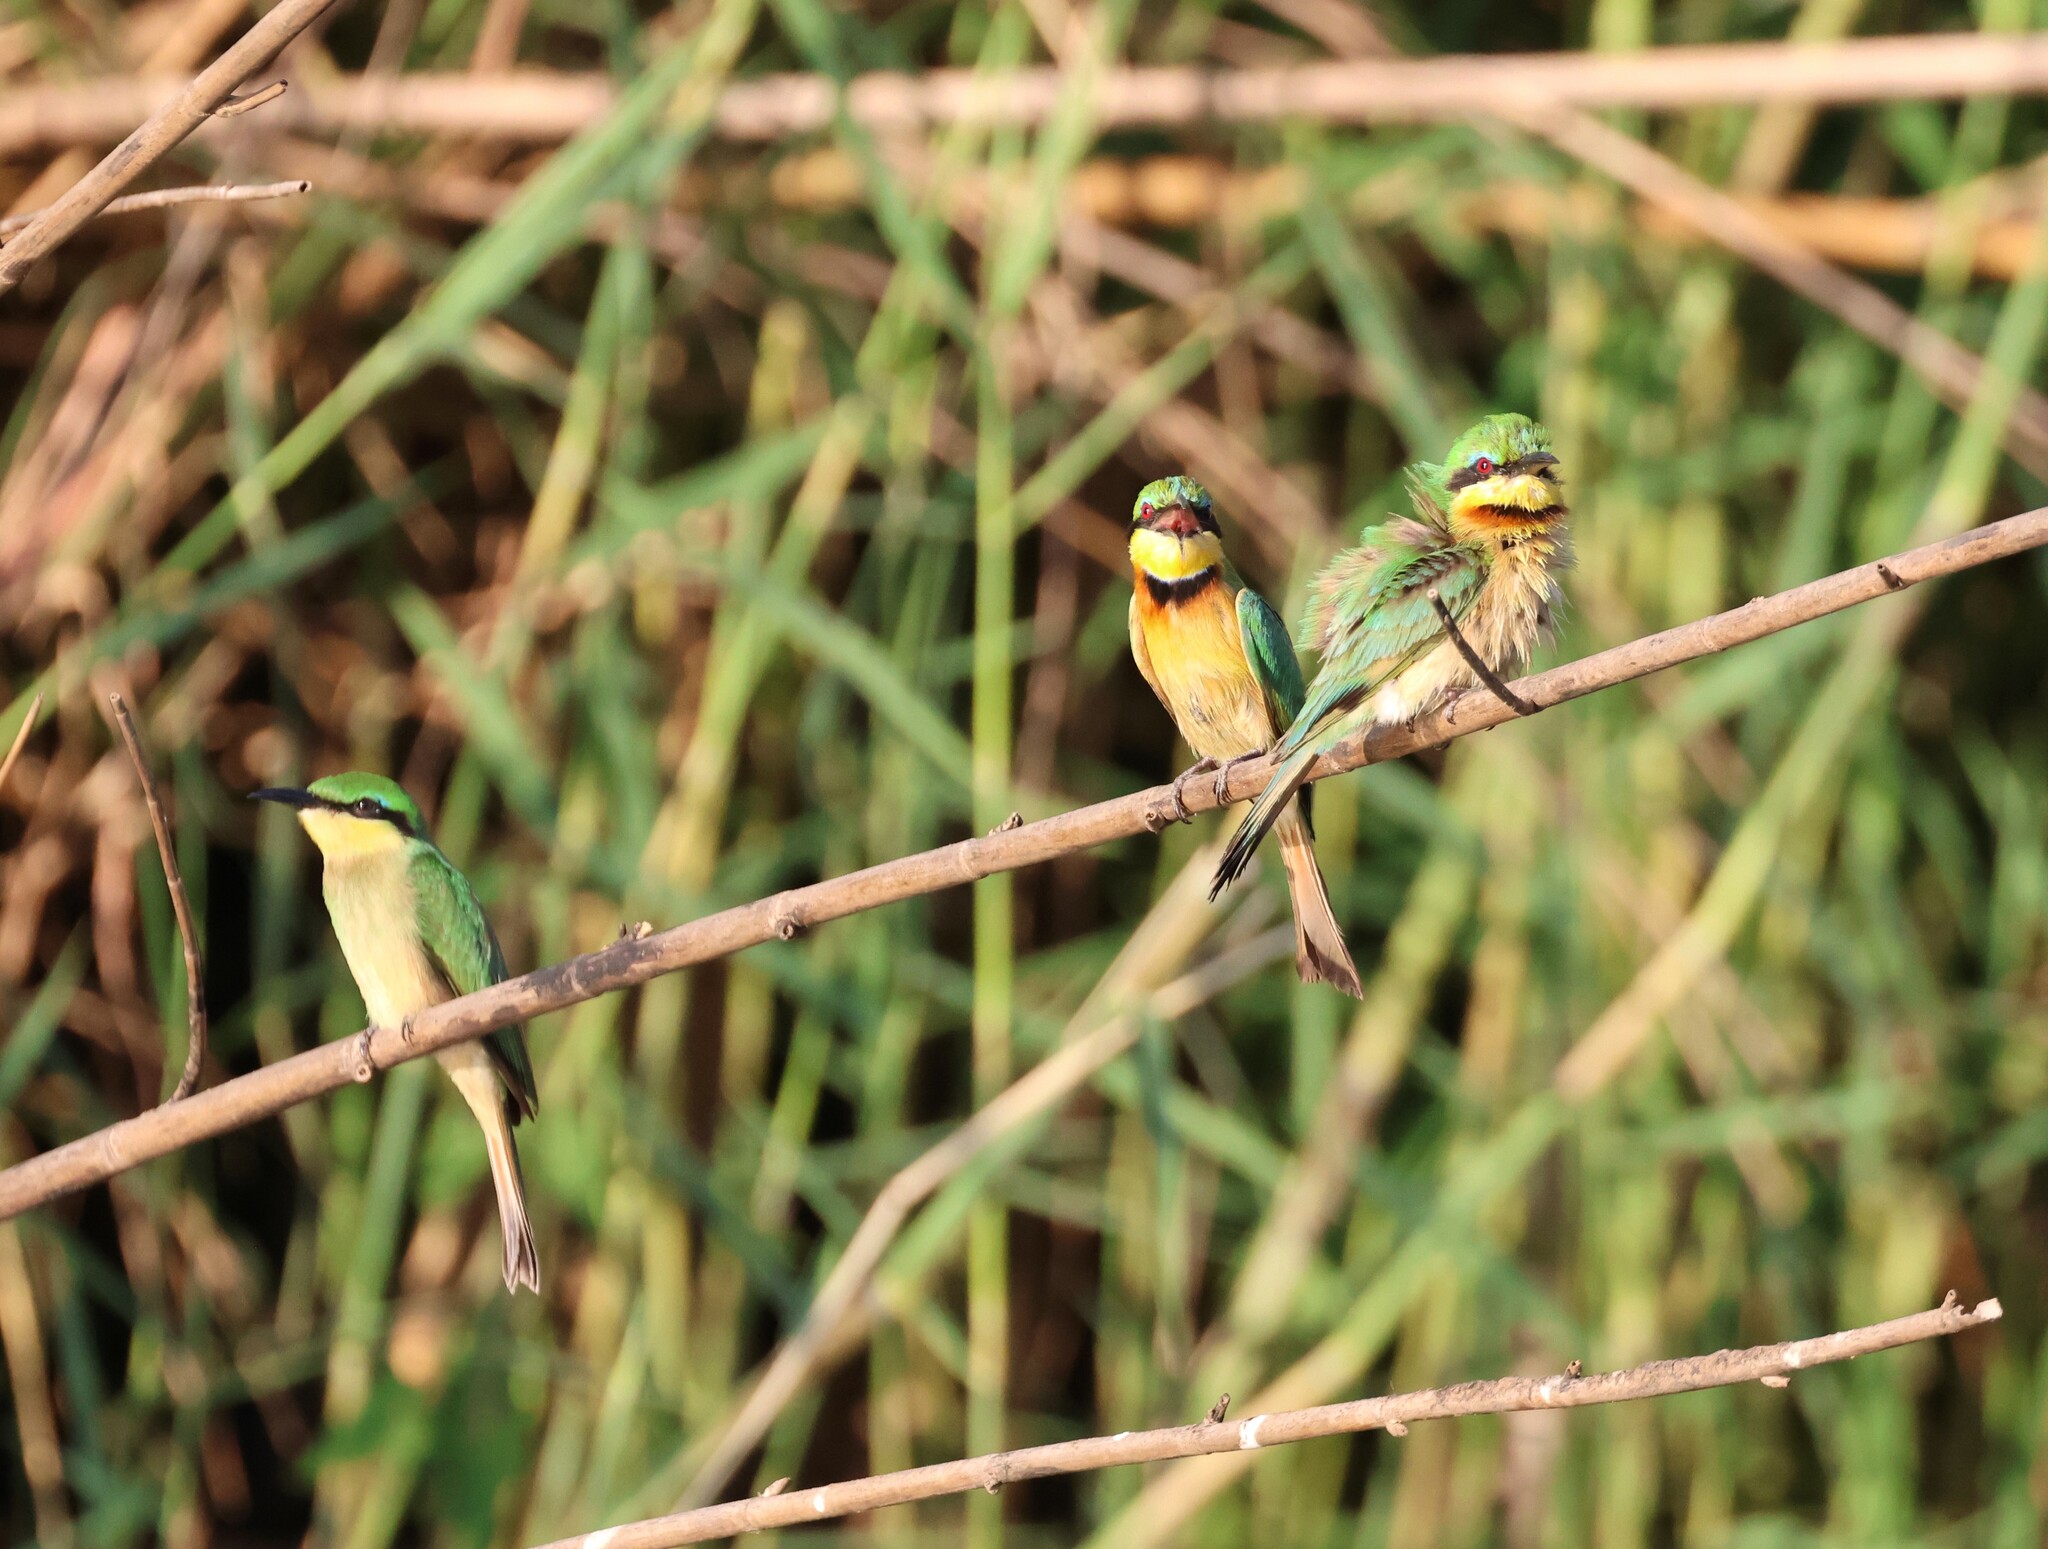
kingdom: Animalia
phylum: Chordata
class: Aves
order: Coraciiformes
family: Meropidae
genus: Merops
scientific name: Merops pusillus
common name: Little bee-eater
